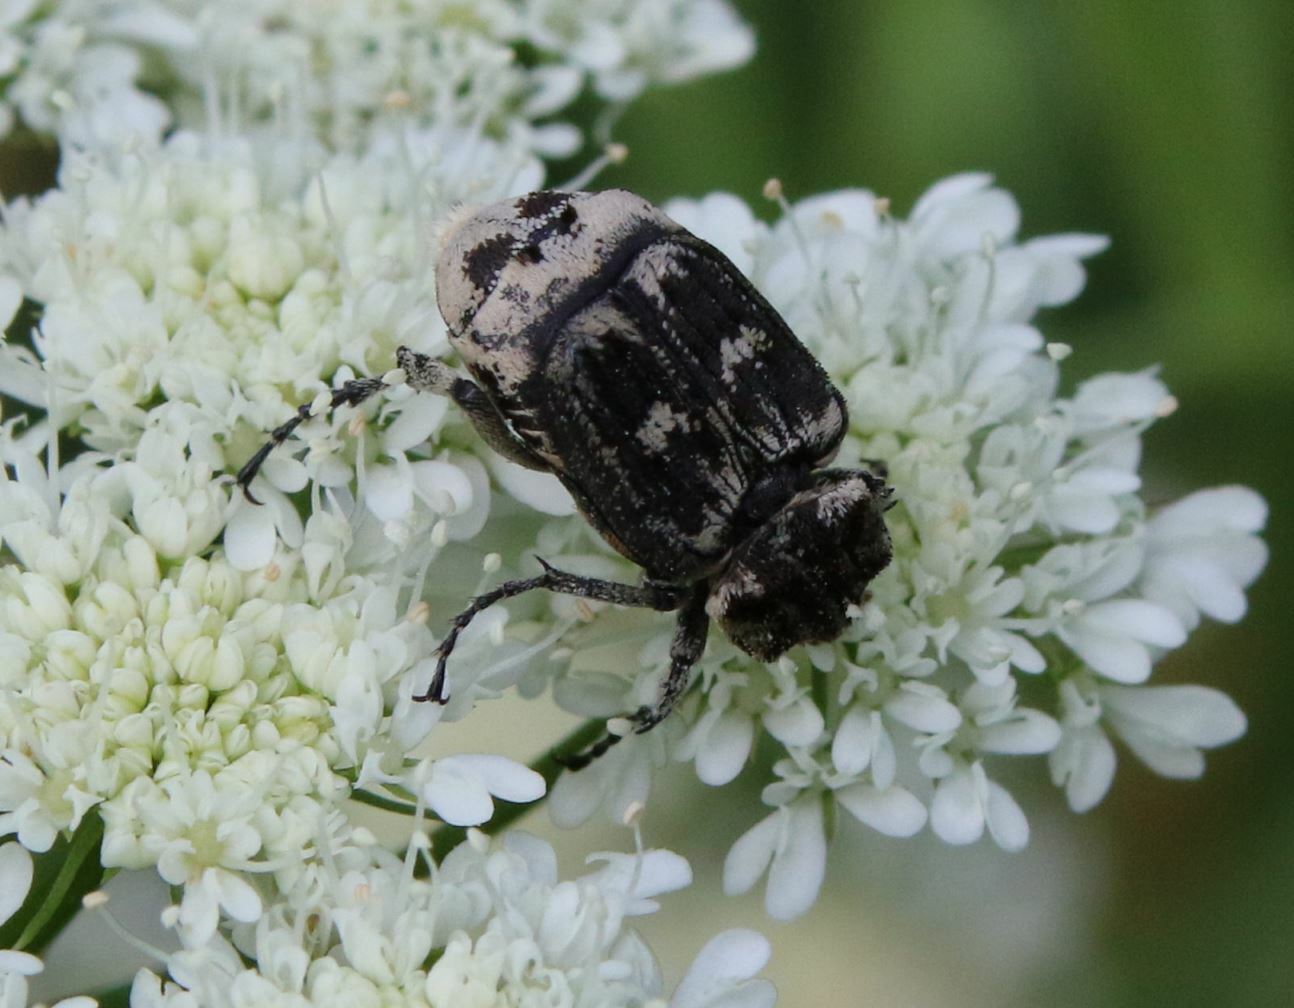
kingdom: Animalia
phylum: Arthropoda
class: Insecta
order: Coleoptera
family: Scarabaeidae
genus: Valgus
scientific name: Valgus hemipterus
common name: Bug flower chafer
